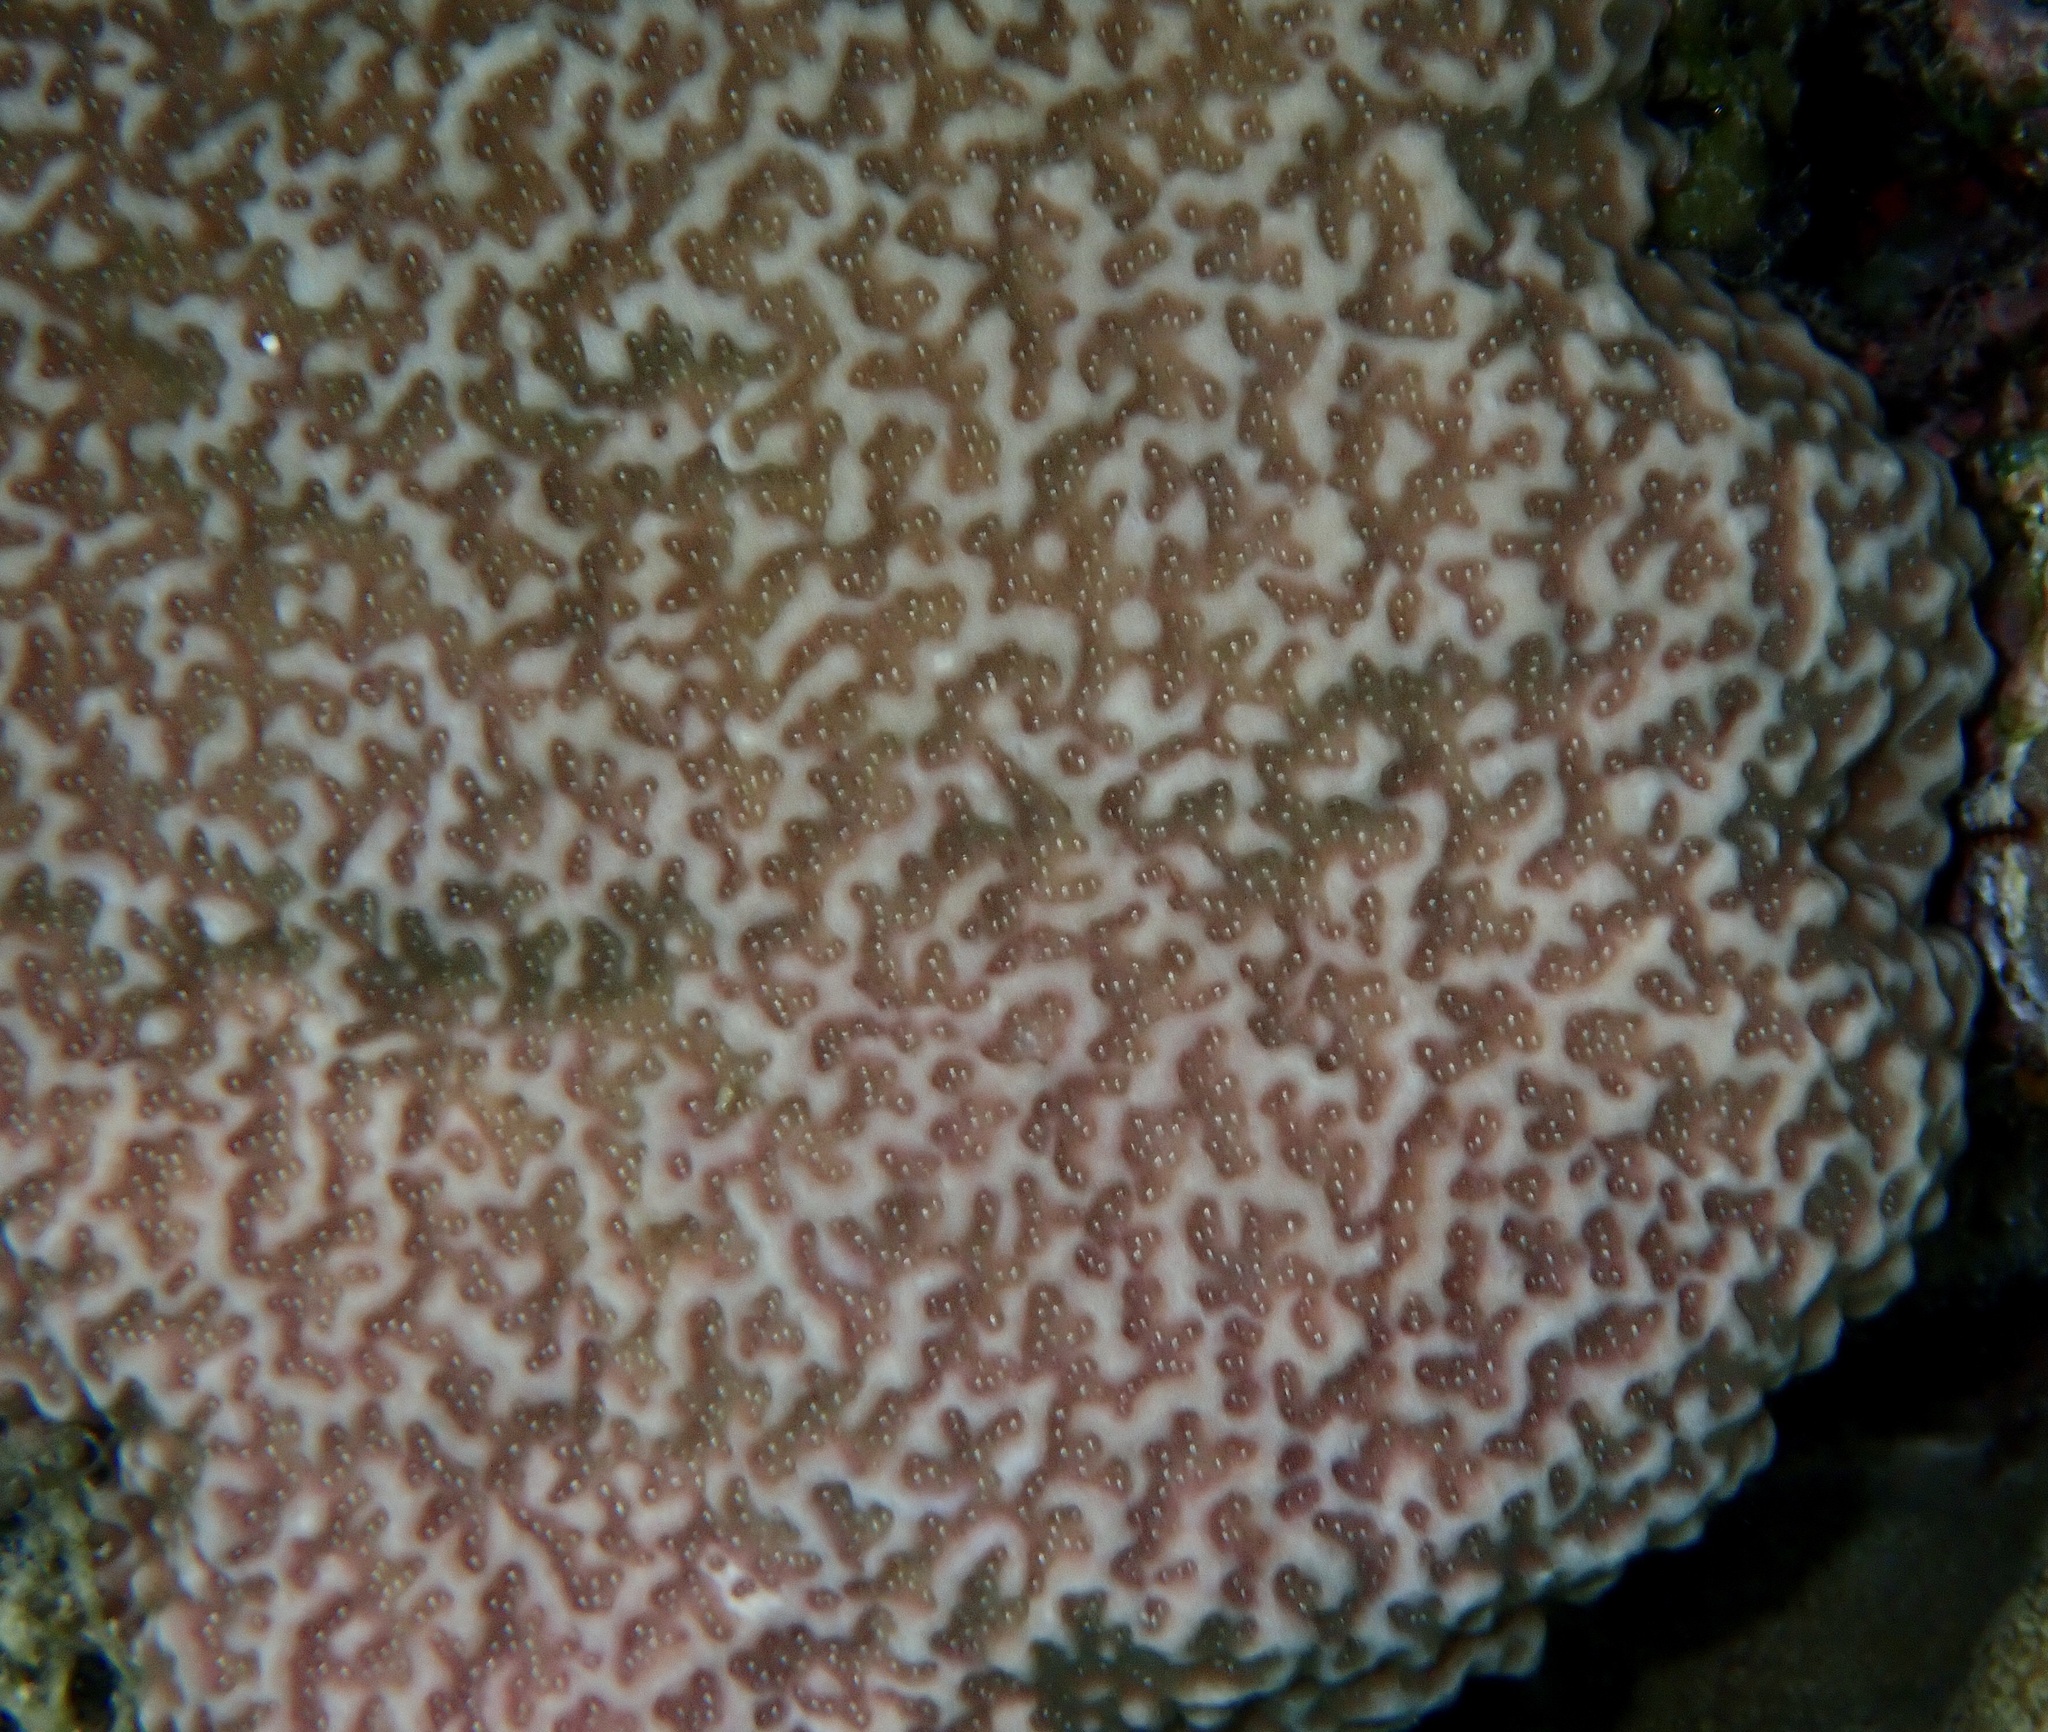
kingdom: Animalia
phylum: Cnidaria
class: Anthozoa
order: Scleractinia
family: Poritidae
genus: Porites
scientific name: Porites rus
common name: Hump coral
